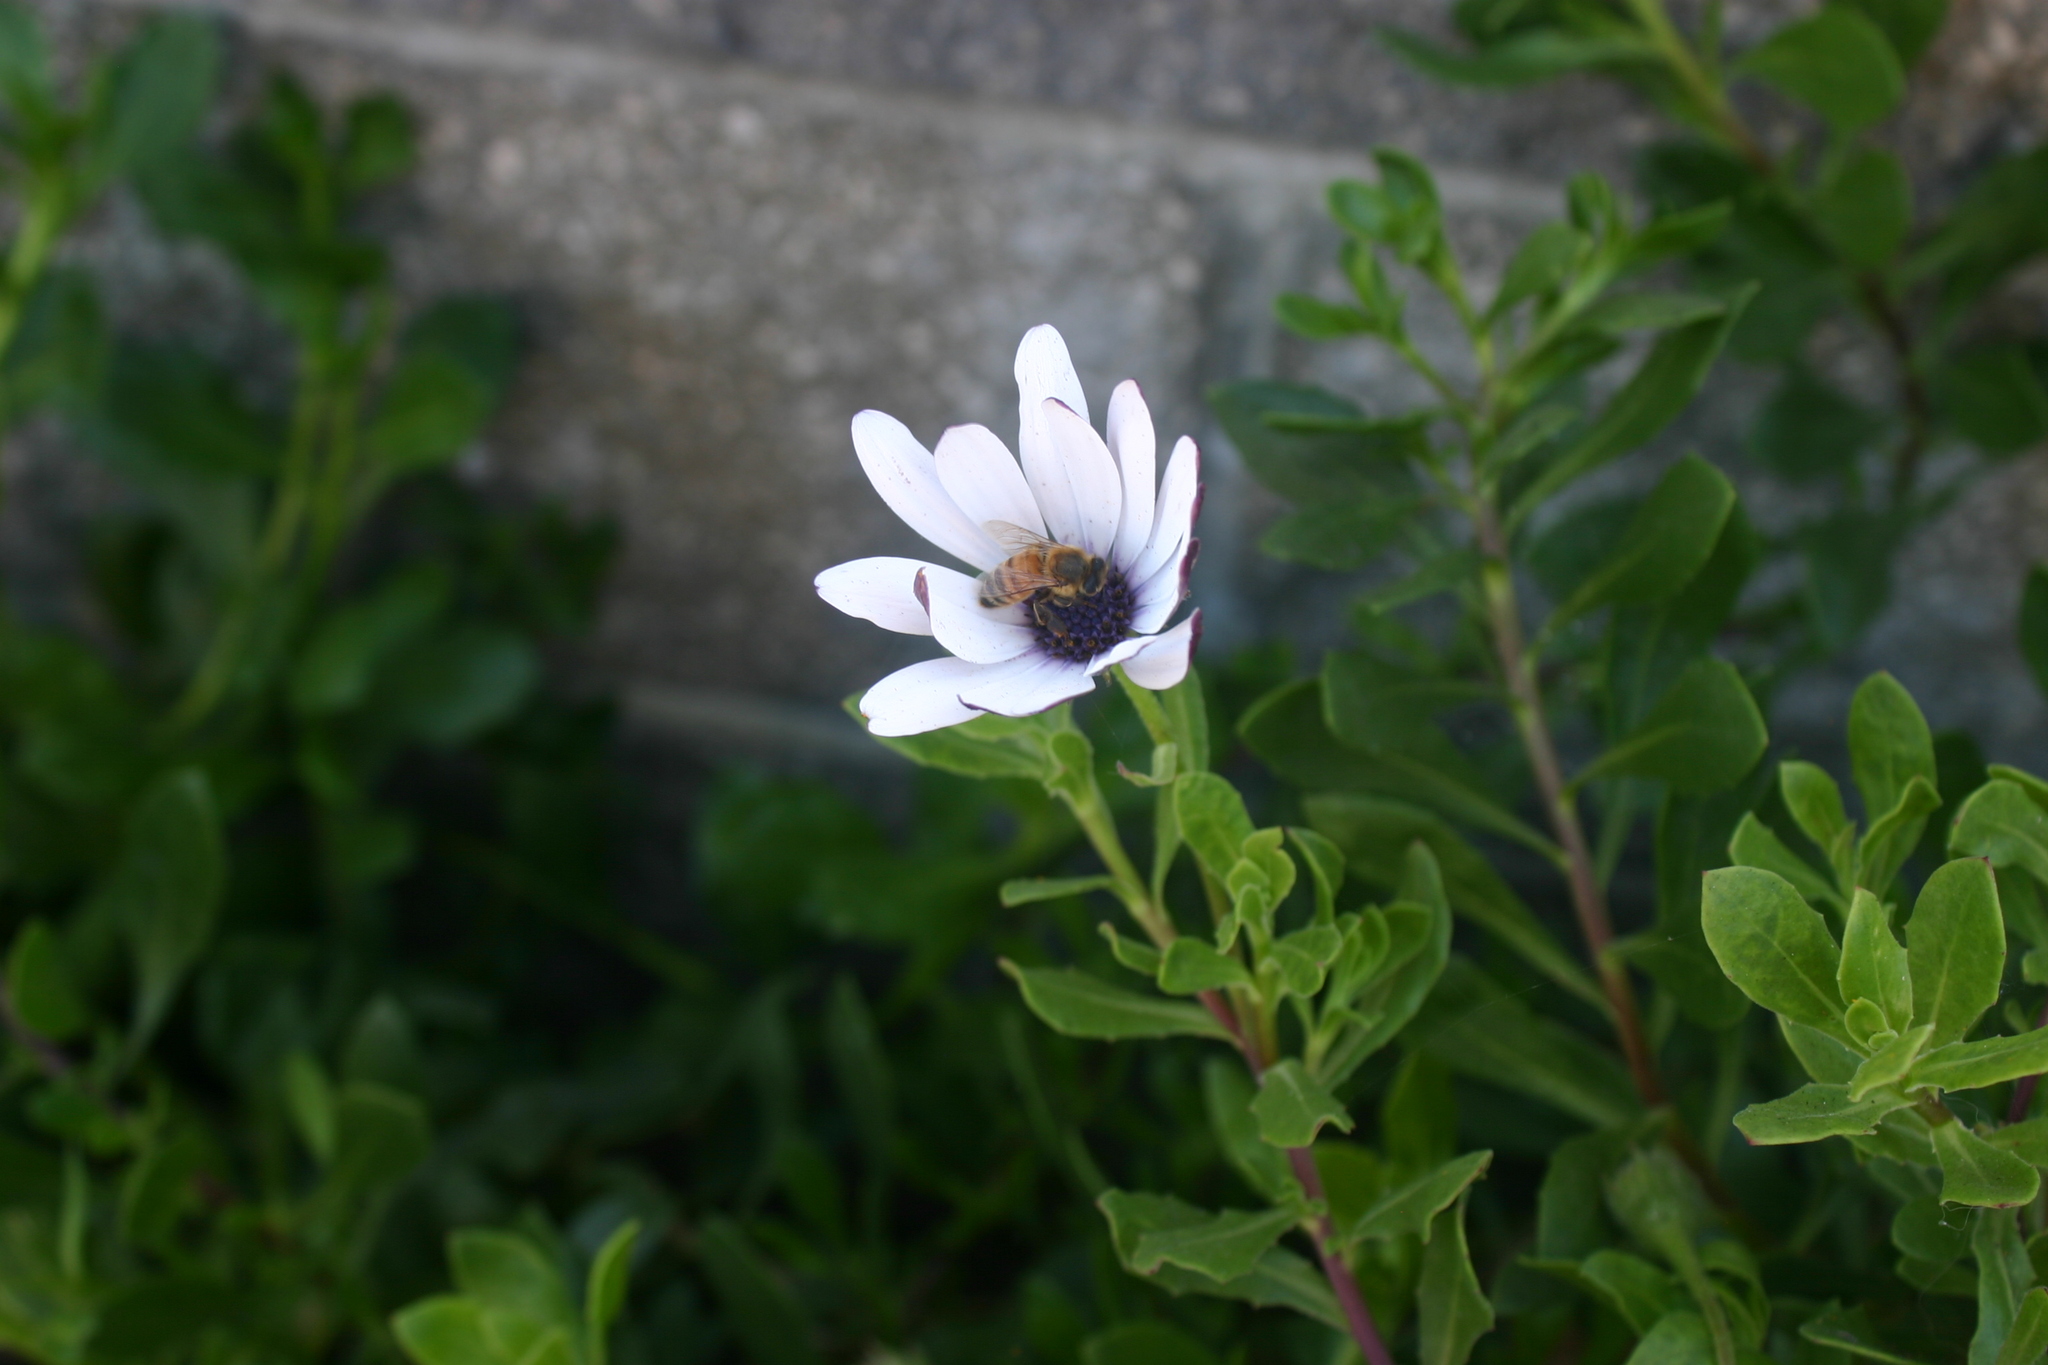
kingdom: Animalia
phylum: Arthropoda
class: Insecta
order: Hymenoptera
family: Apidae
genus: Apis
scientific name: Apis mellifera
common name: Honey bee
